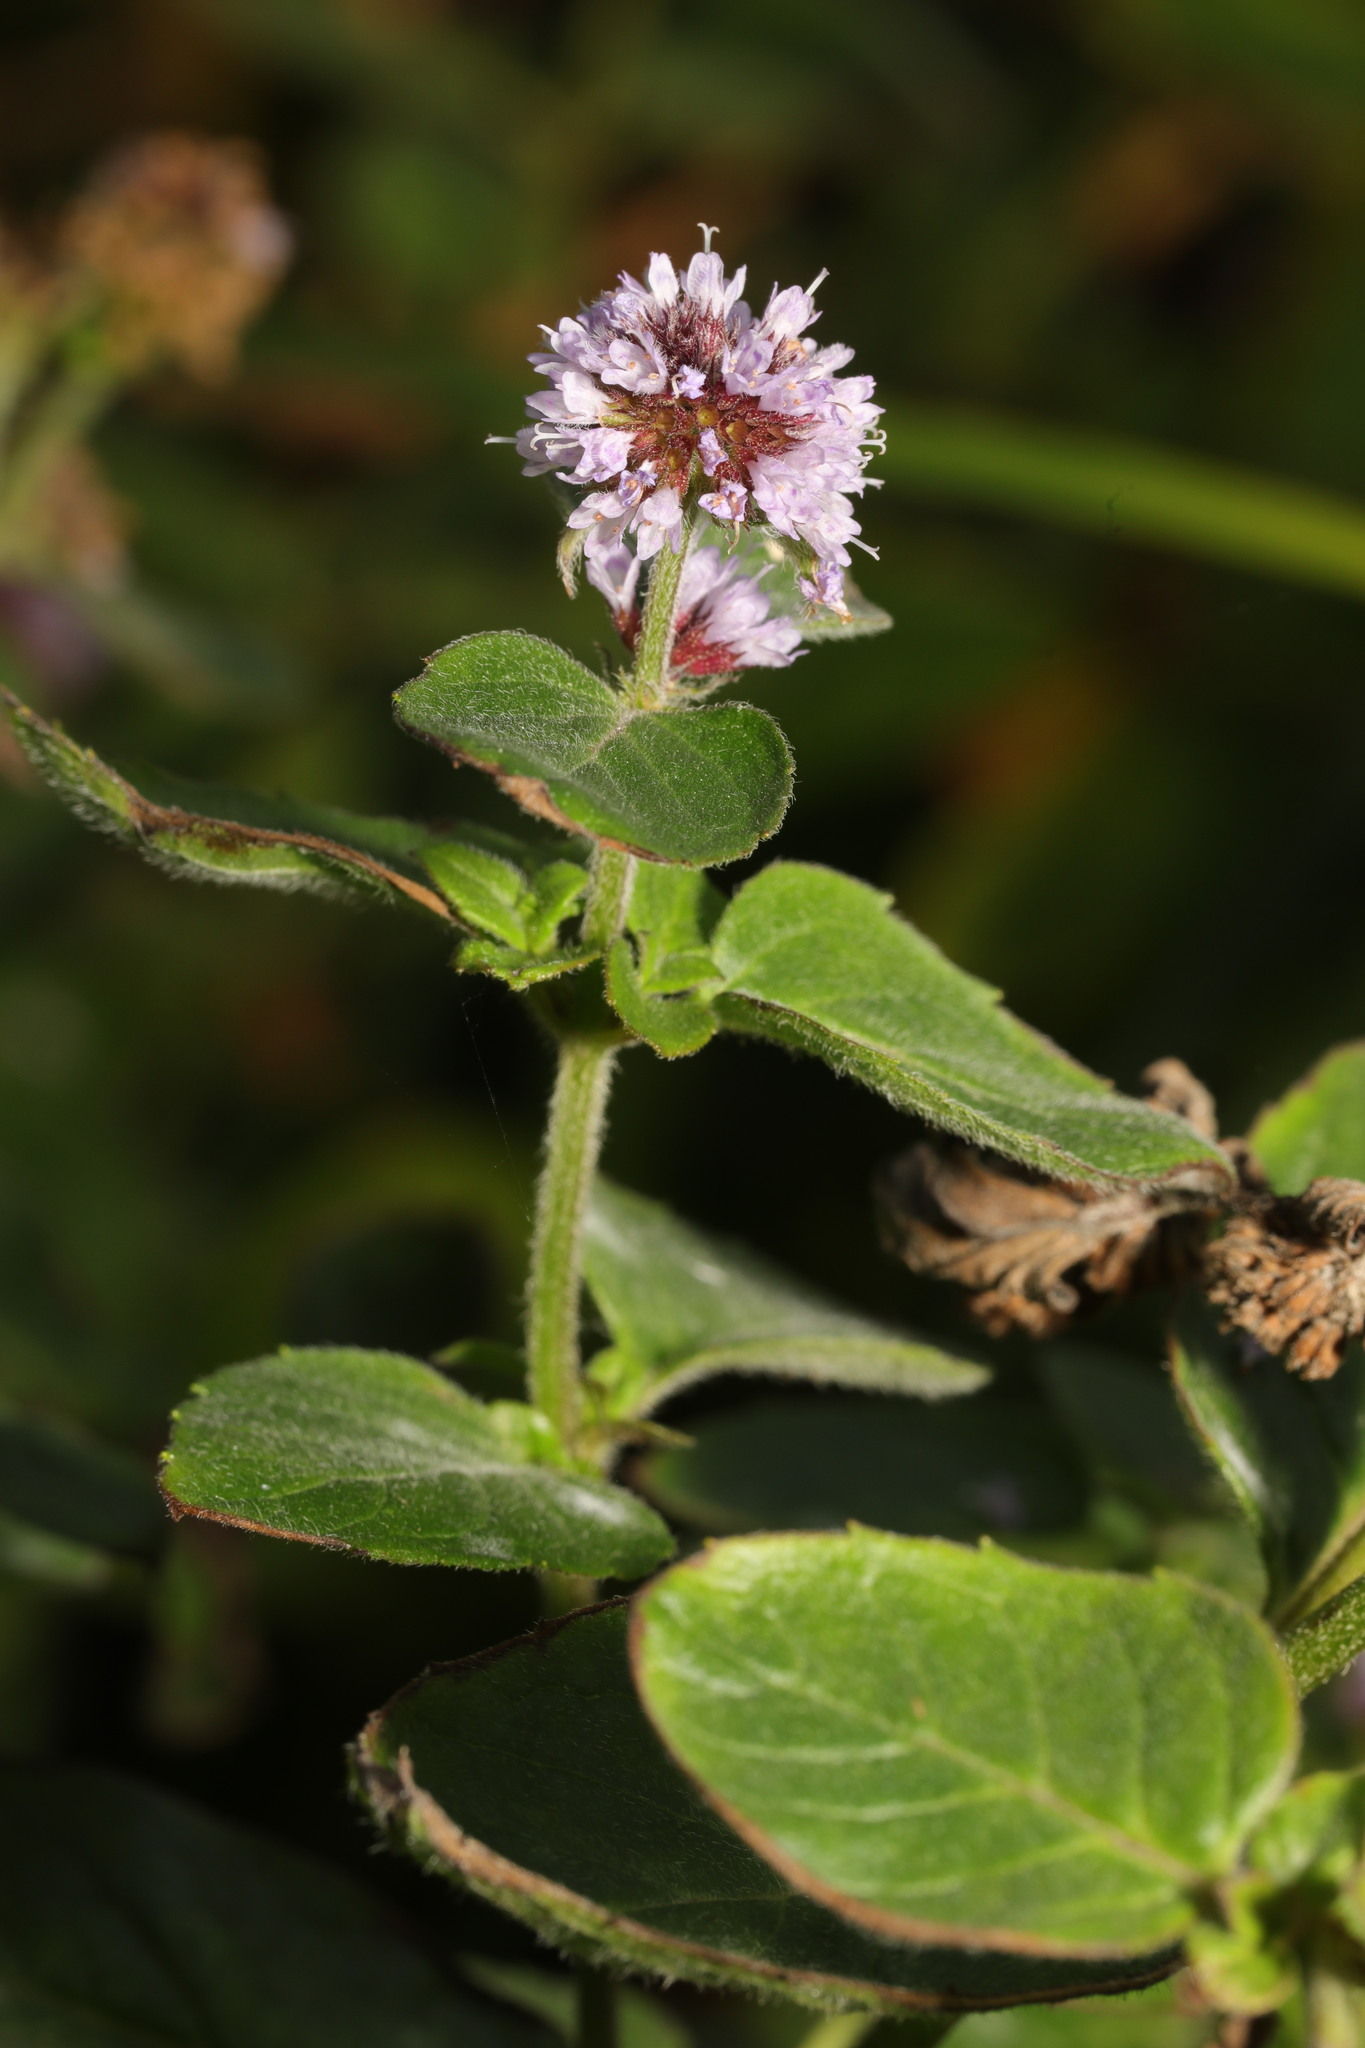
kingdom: Plantae
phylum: Tracheophyta
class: Magnoliopsida
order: Lamiales
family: Lamiaceae
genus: Mentha
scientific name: Mentha aquatica
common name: Water mint
